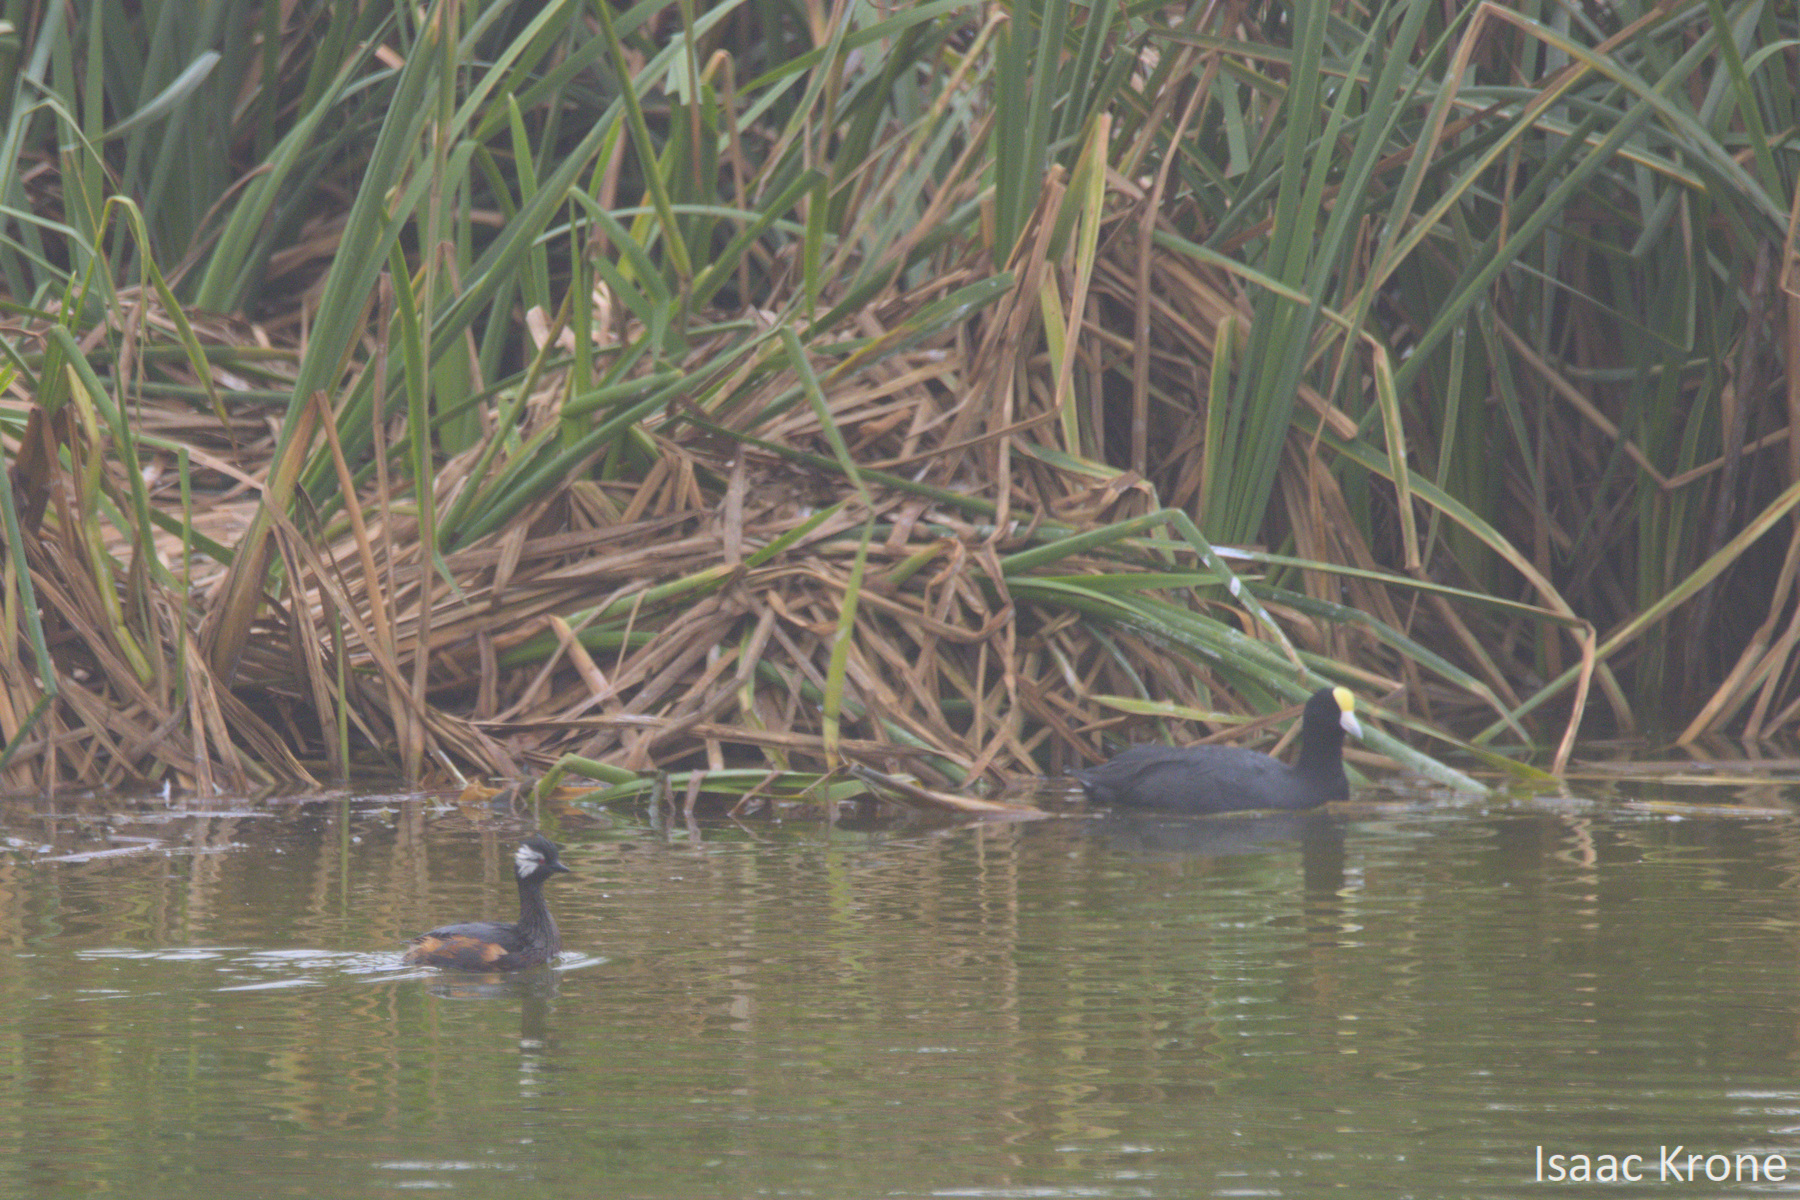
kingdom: Animalia
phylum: Chordata
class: Aves
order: Podicipediformes
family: Podicipedidae
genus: Rollandia
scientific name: Rollandia rolland
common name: White-tufted grebe
